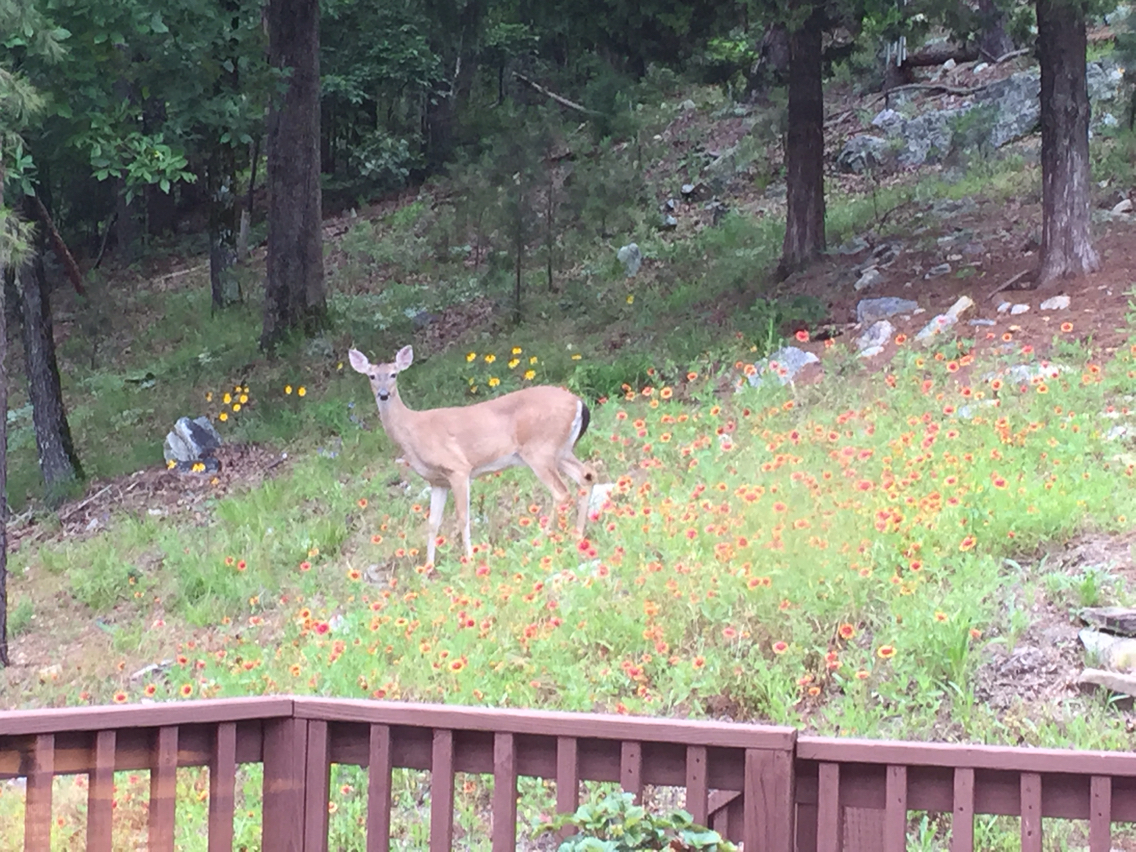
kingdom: Animalia
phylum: Chordata
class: Mammalia
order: Artiodactyla
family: Cervidae
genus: Odocoileus
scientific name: Odocoileus virginianus
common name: White-tailed deer
